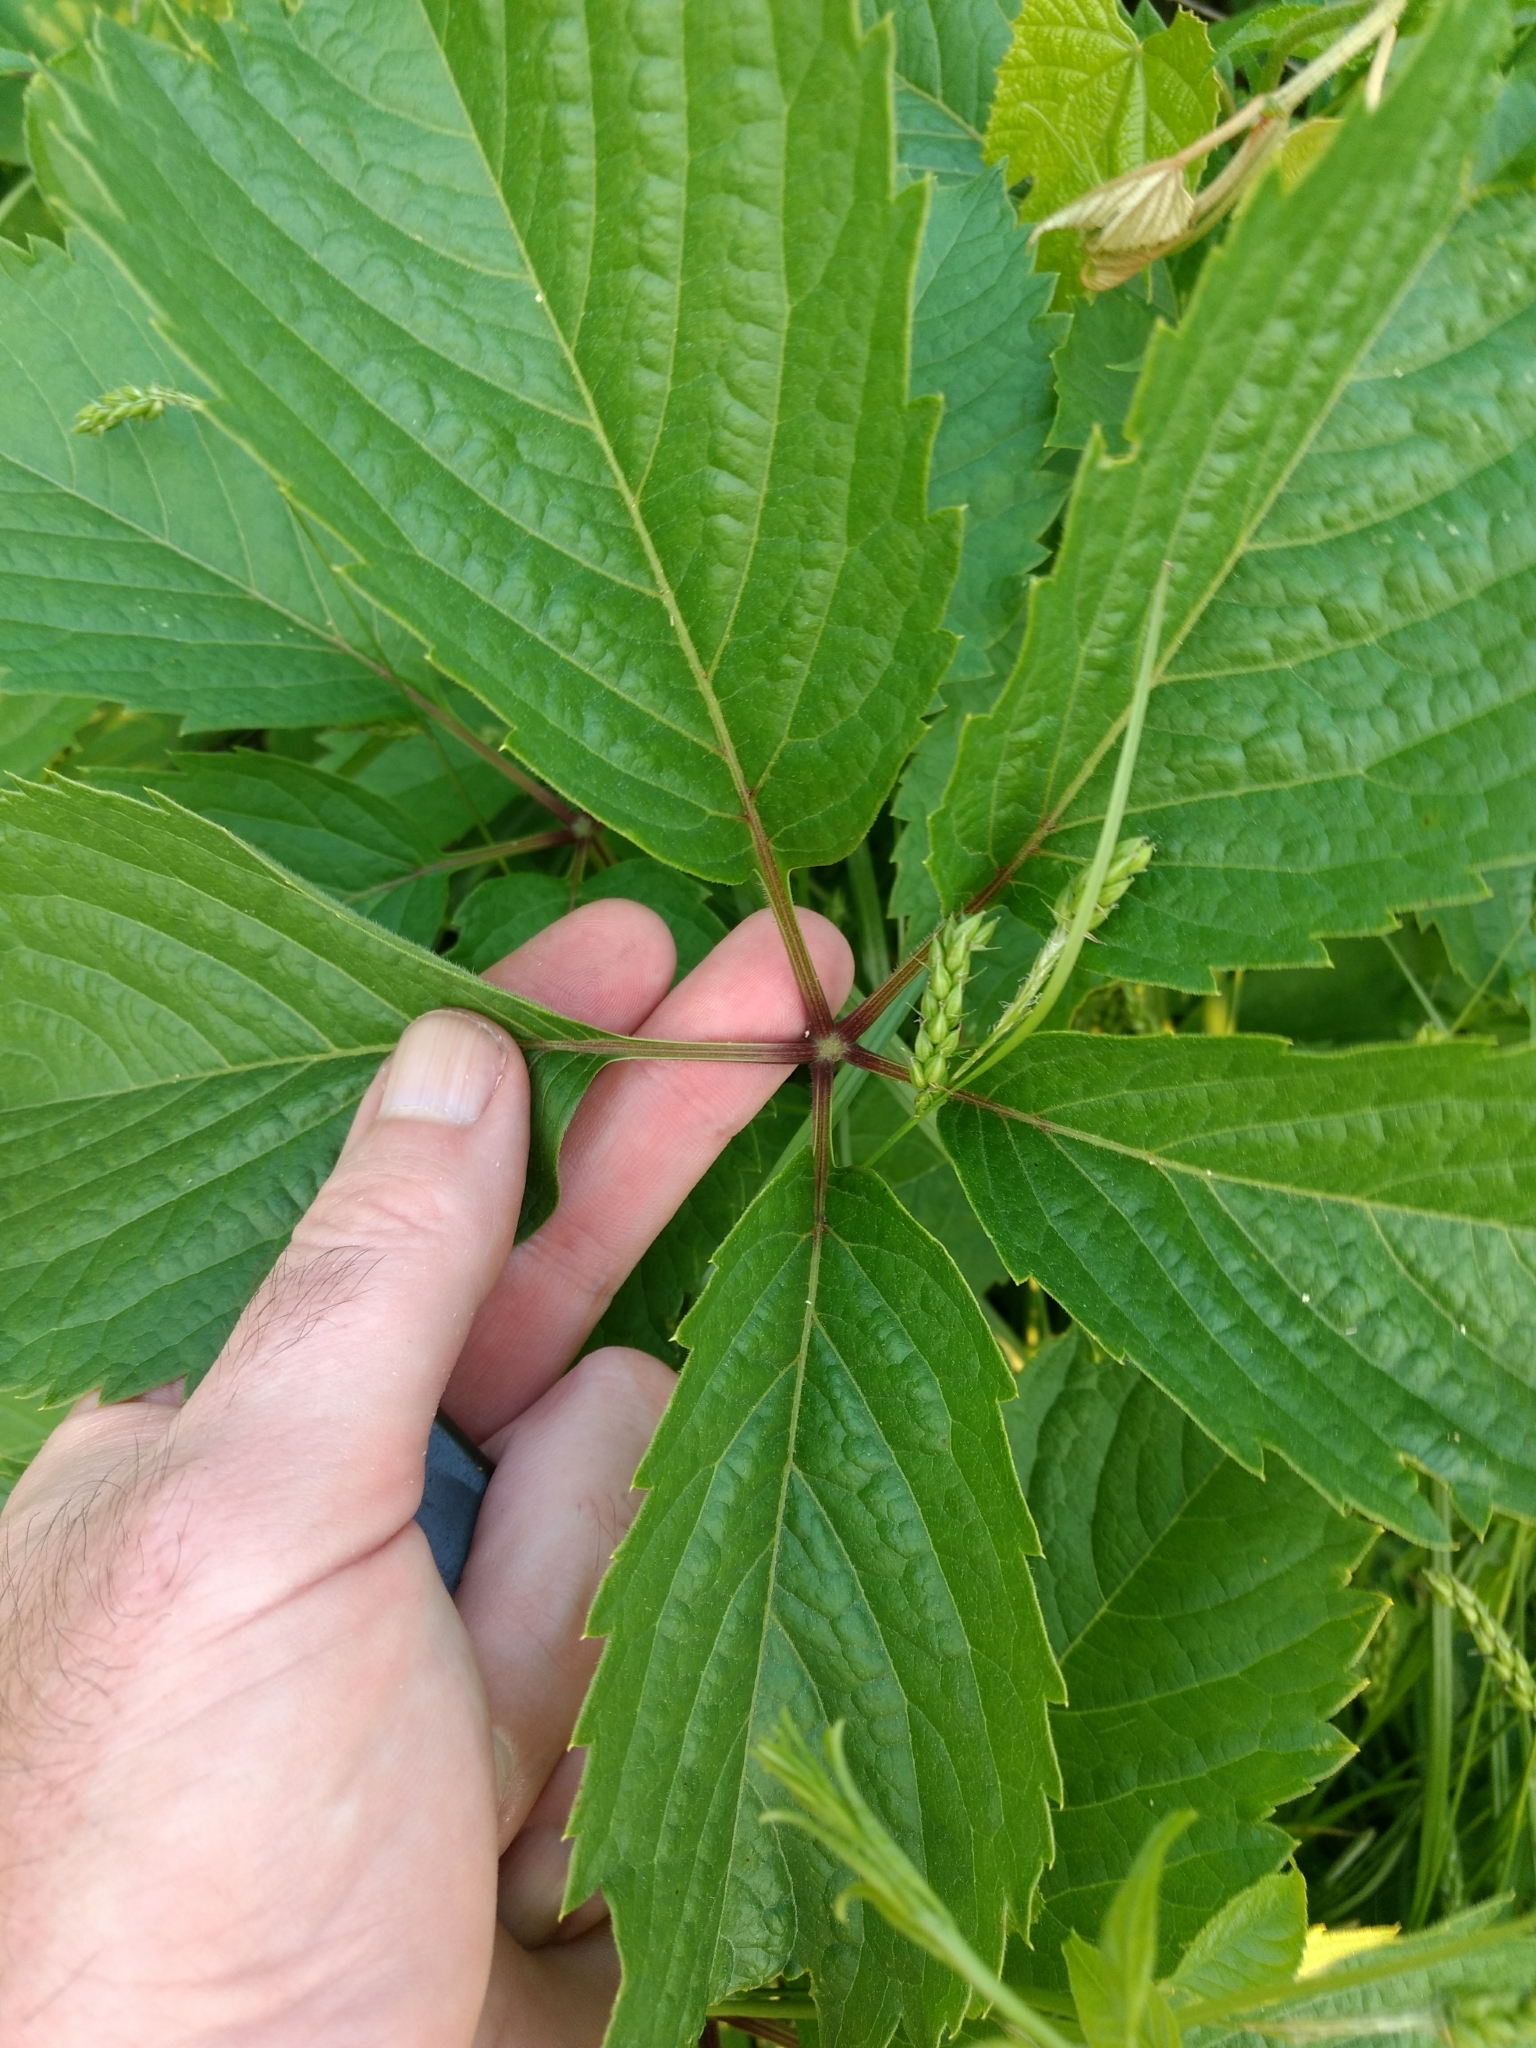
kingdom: Plantae
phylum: Tracheophyta
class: Magnoliopsida
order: Vitales
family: Vitaceae
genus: Parthenocissus
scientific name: Parthenocissus inserta
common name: False virginia-creeper
